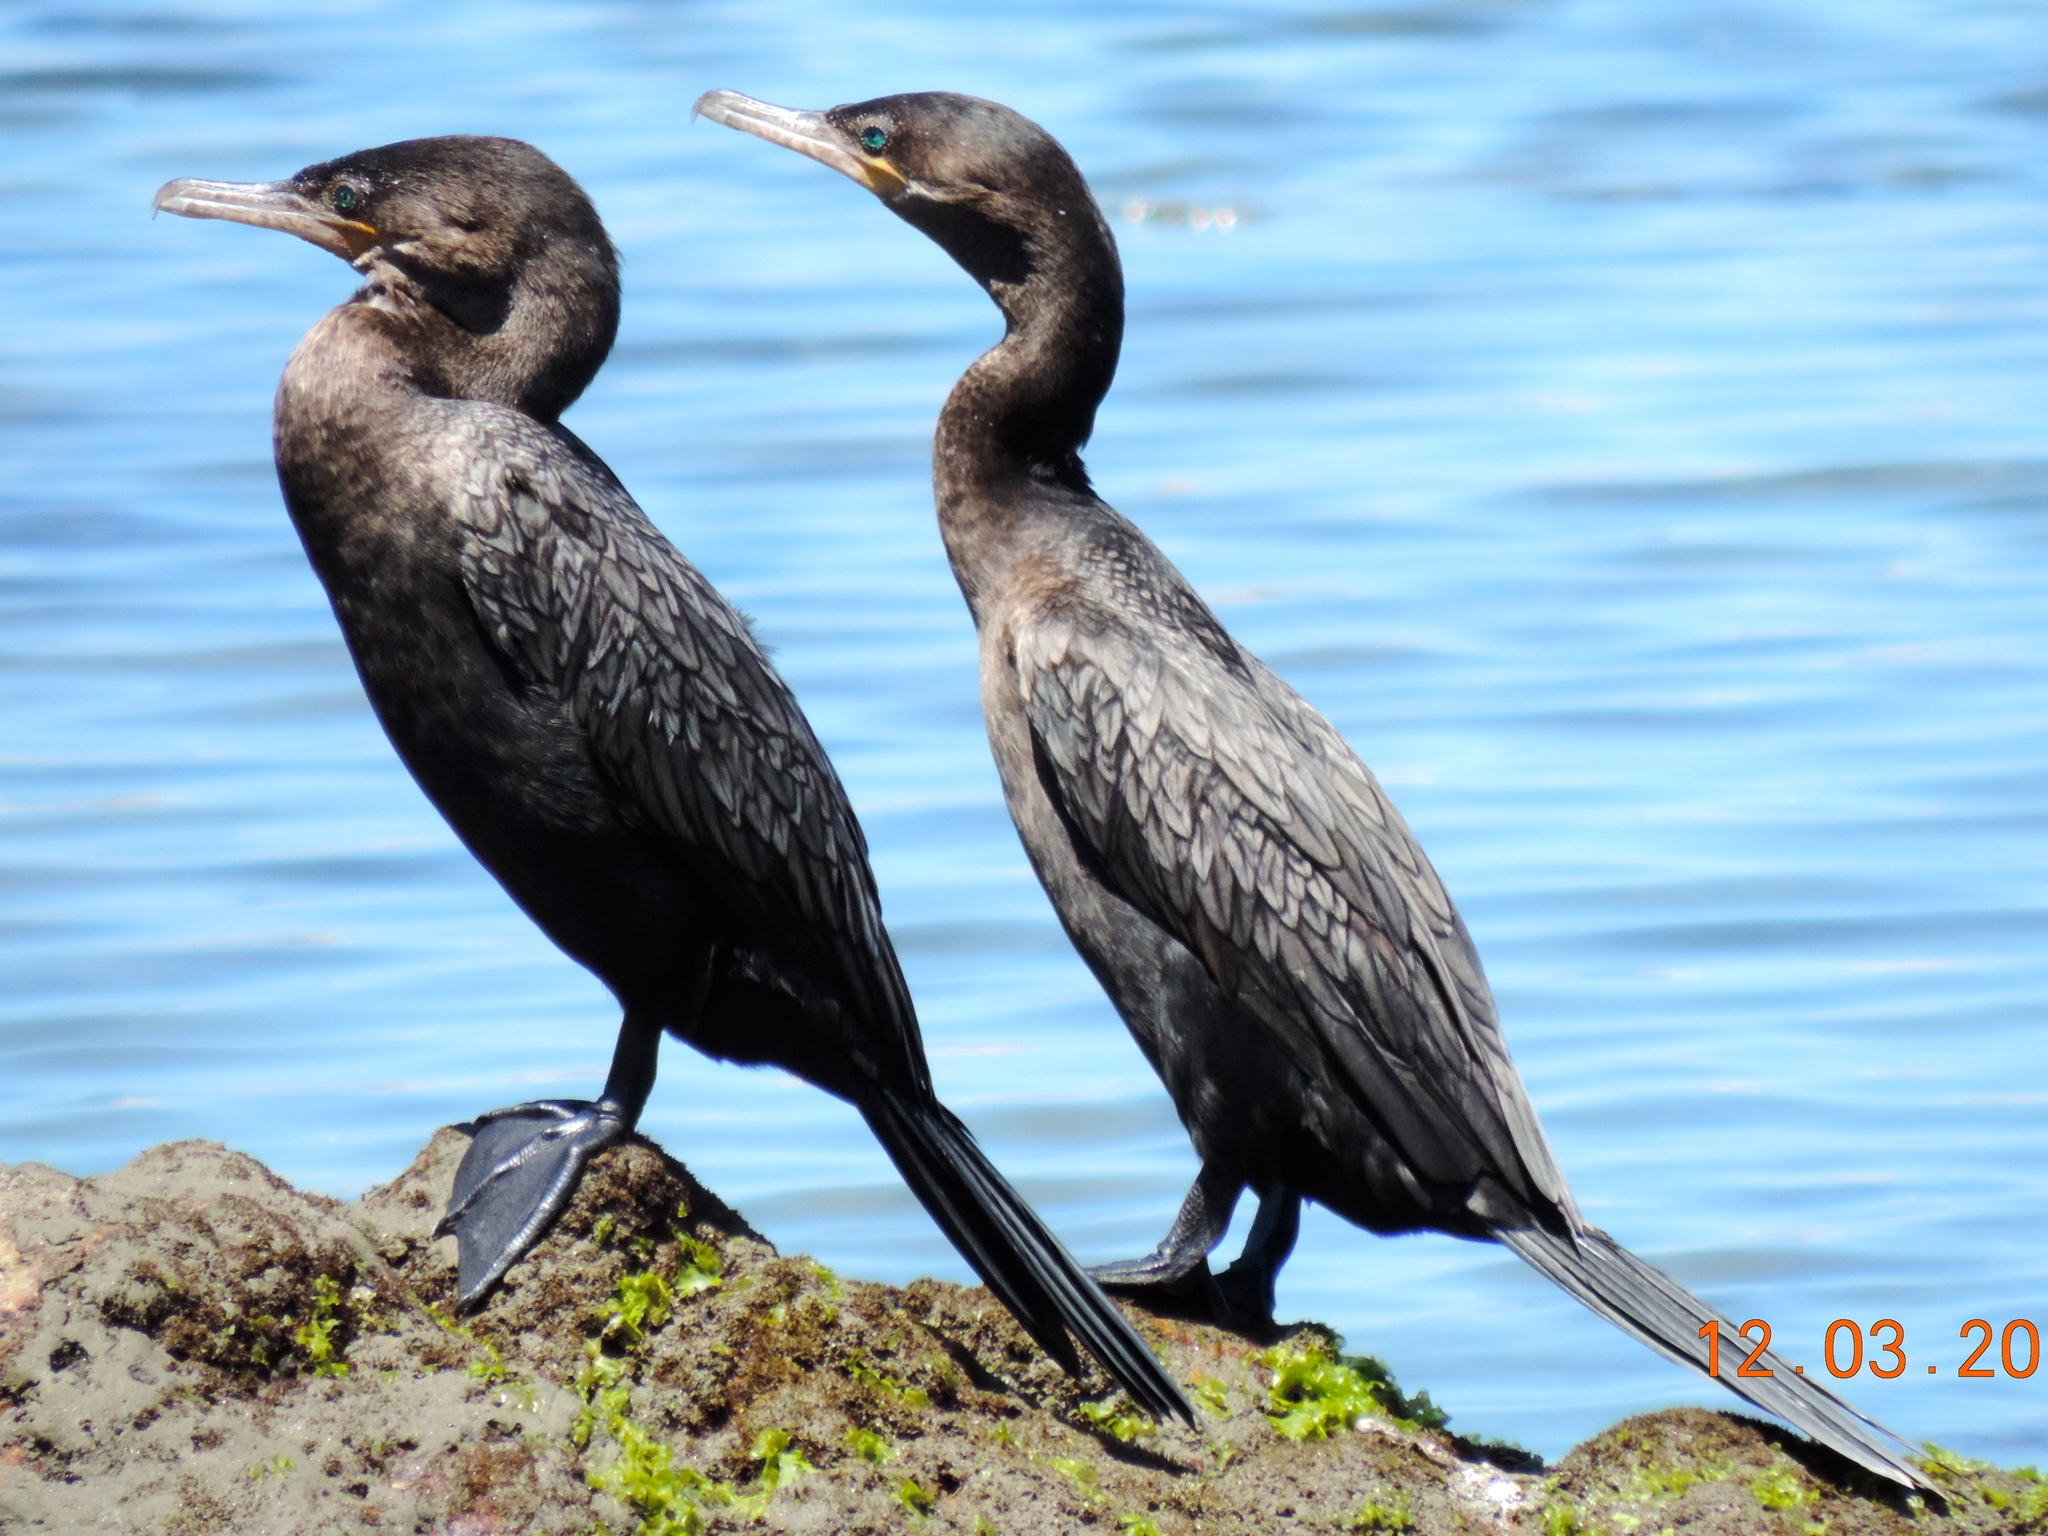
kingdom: Animalia
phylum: Chordata
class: Aves
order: Suliformes
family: Phalacrocoracidae
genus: Phalacrocorax
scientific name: Phalacrocorax brasilianus
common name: Neotropic cormorant
